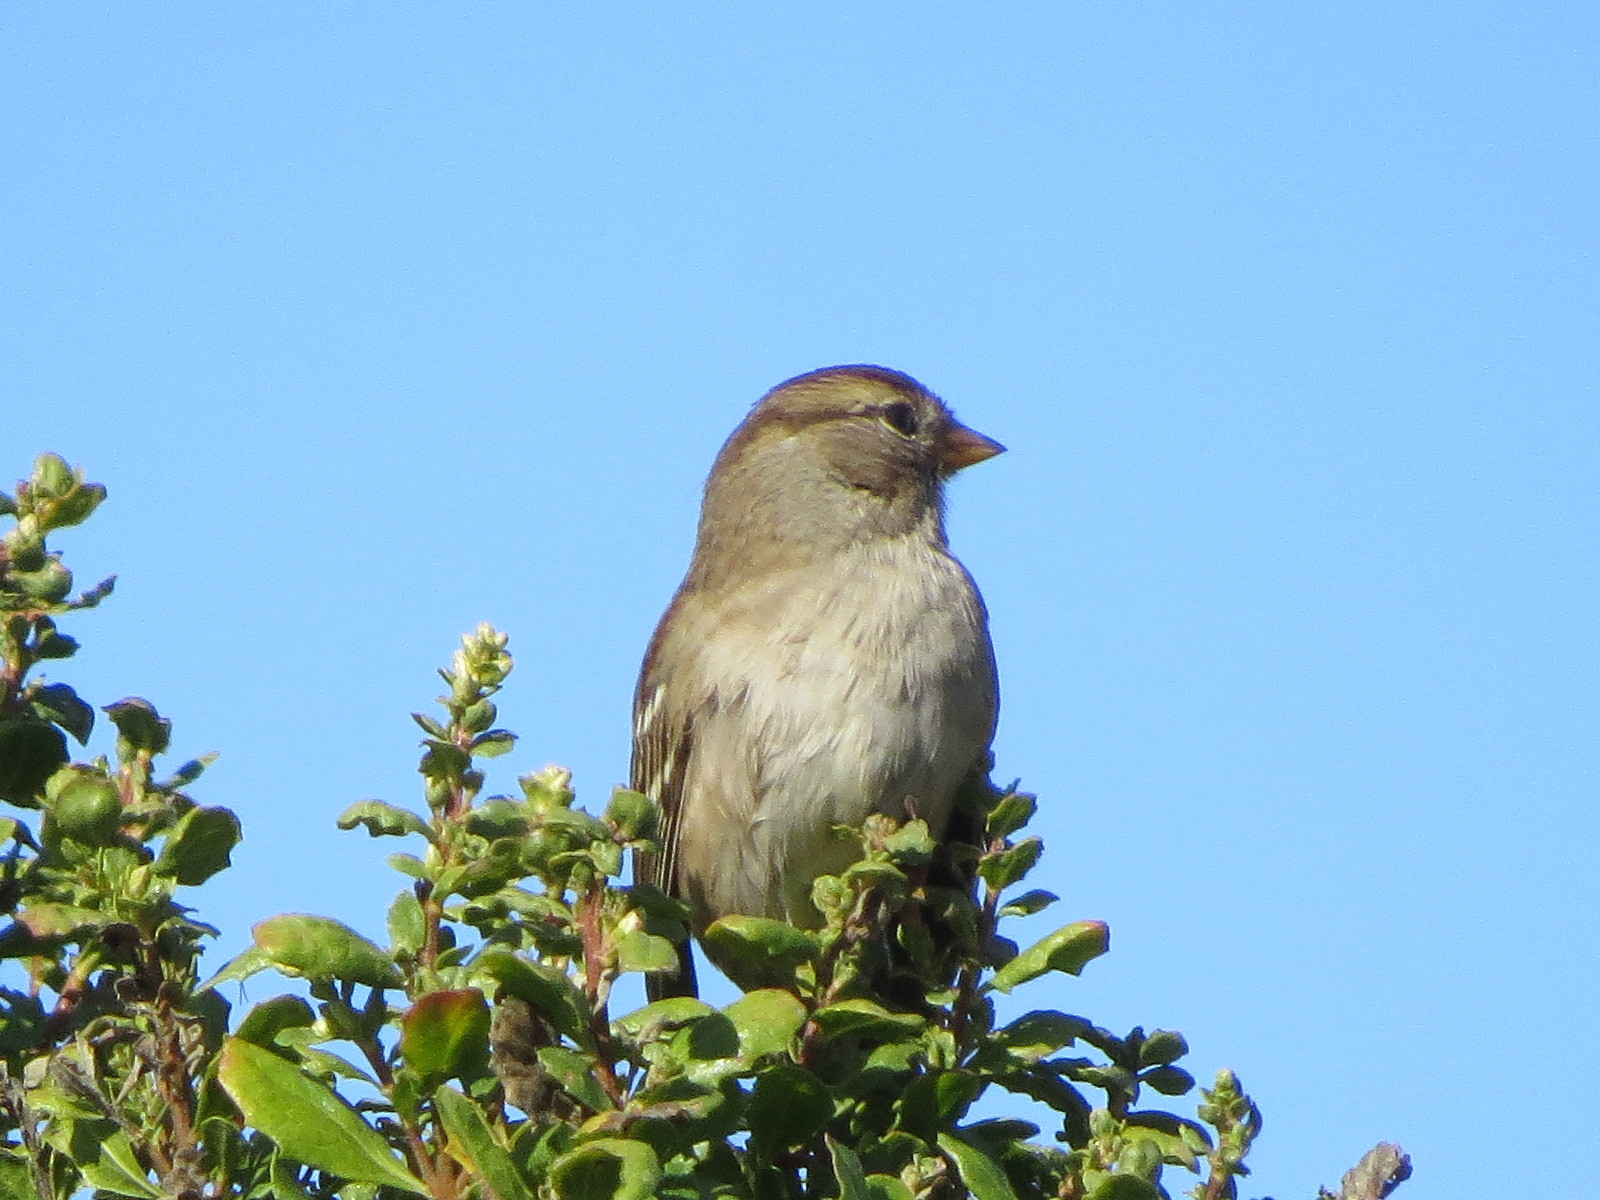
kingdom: Animalia
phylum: Chordata
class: Aves
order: Passeriformes
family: Passerellidae
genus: Zonotrichia
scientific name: Zonotrichia leucophrys
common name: White-crowned sparrow
